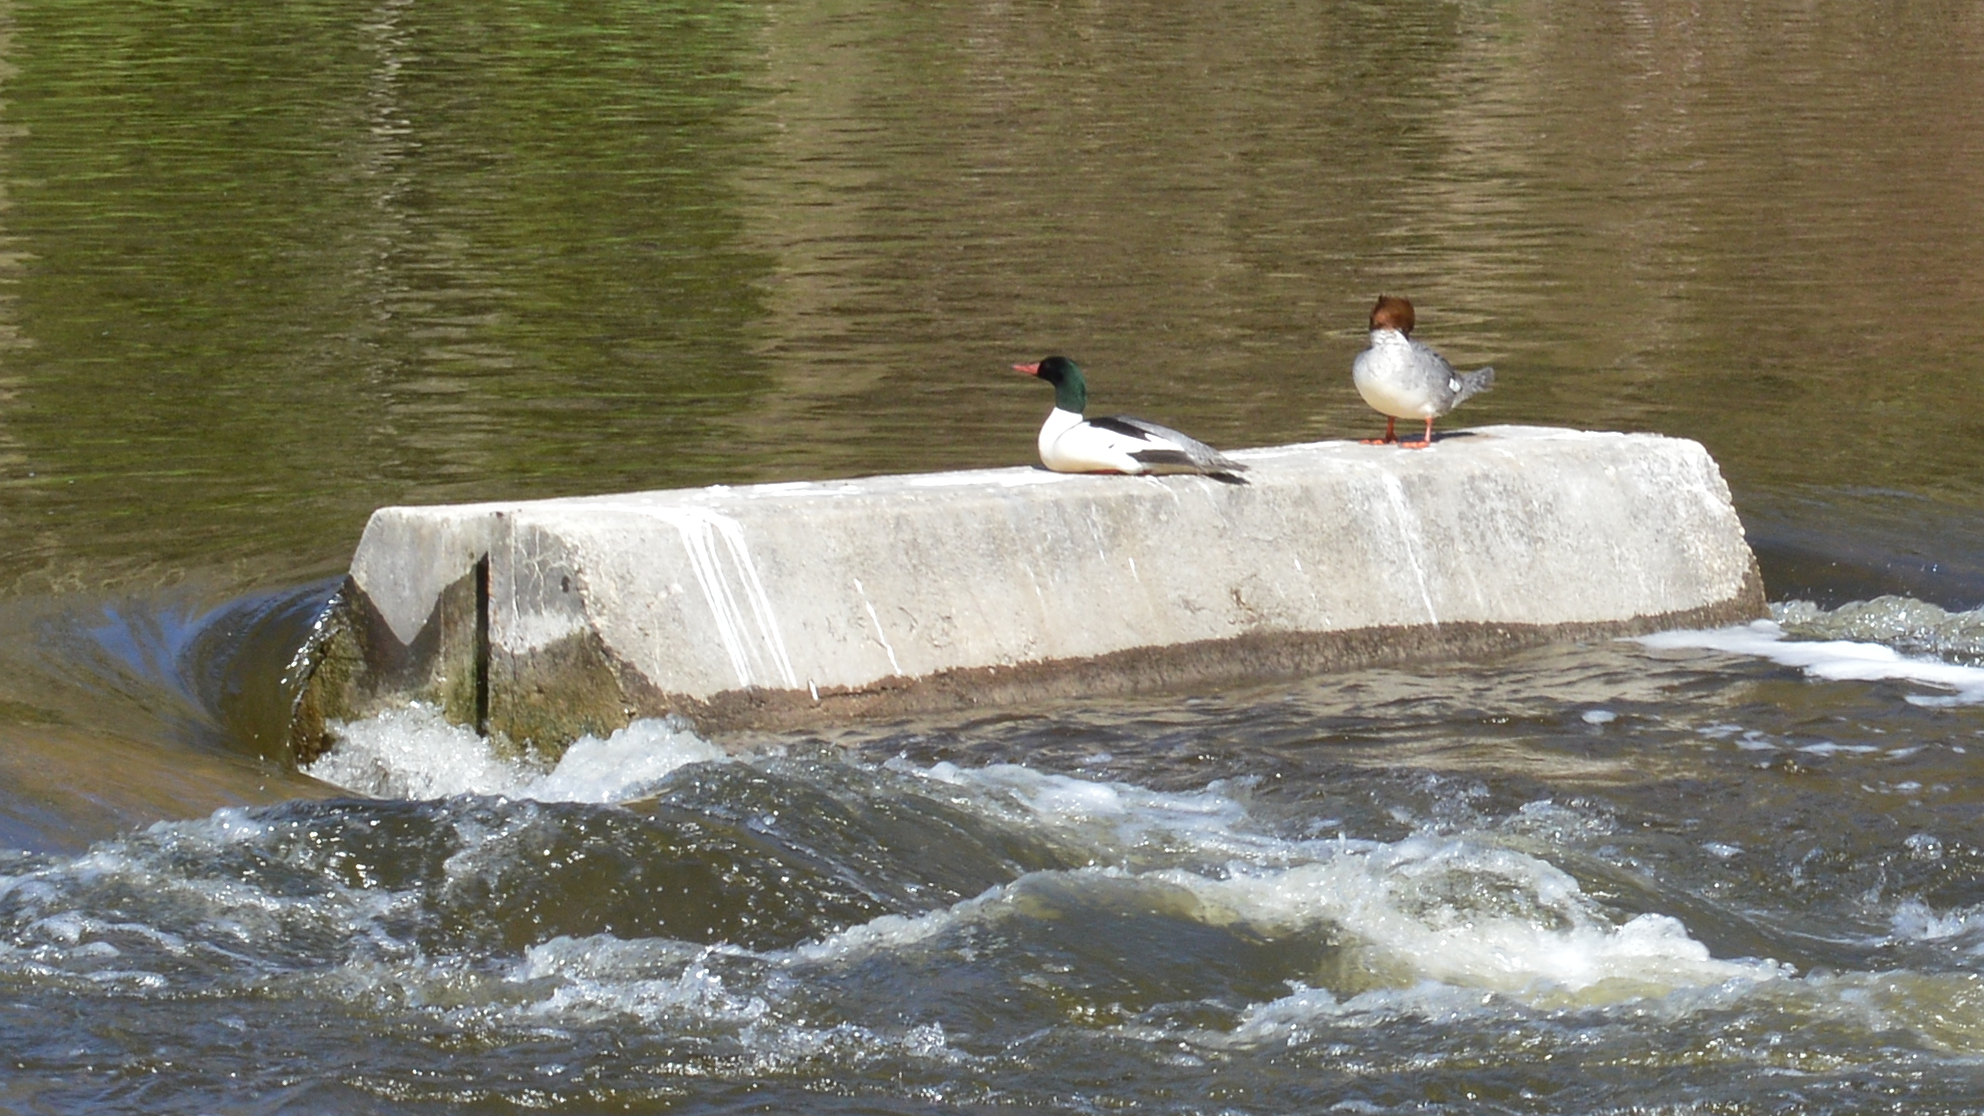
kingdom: Animalia
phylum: Chordata
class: Aves
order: Anseriformes
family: Anatidae
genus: Mergus
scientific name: Mergus merganser
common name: Common merganser
